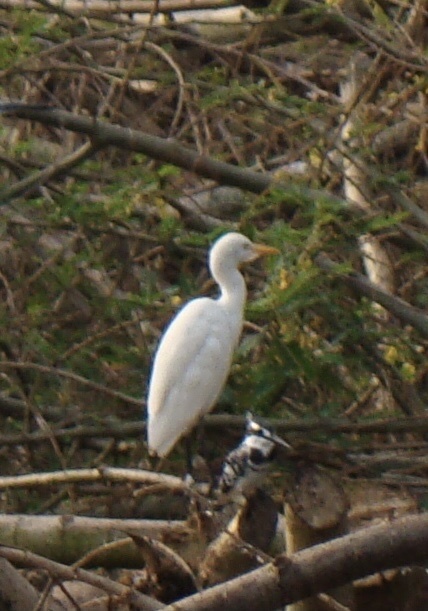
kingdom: Animalia
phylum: Chordata
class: Aves
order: Pelecaniformes
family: Ardeidae
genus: Bubulcus
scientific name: Bubulcus ibis
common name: Cattle egret
